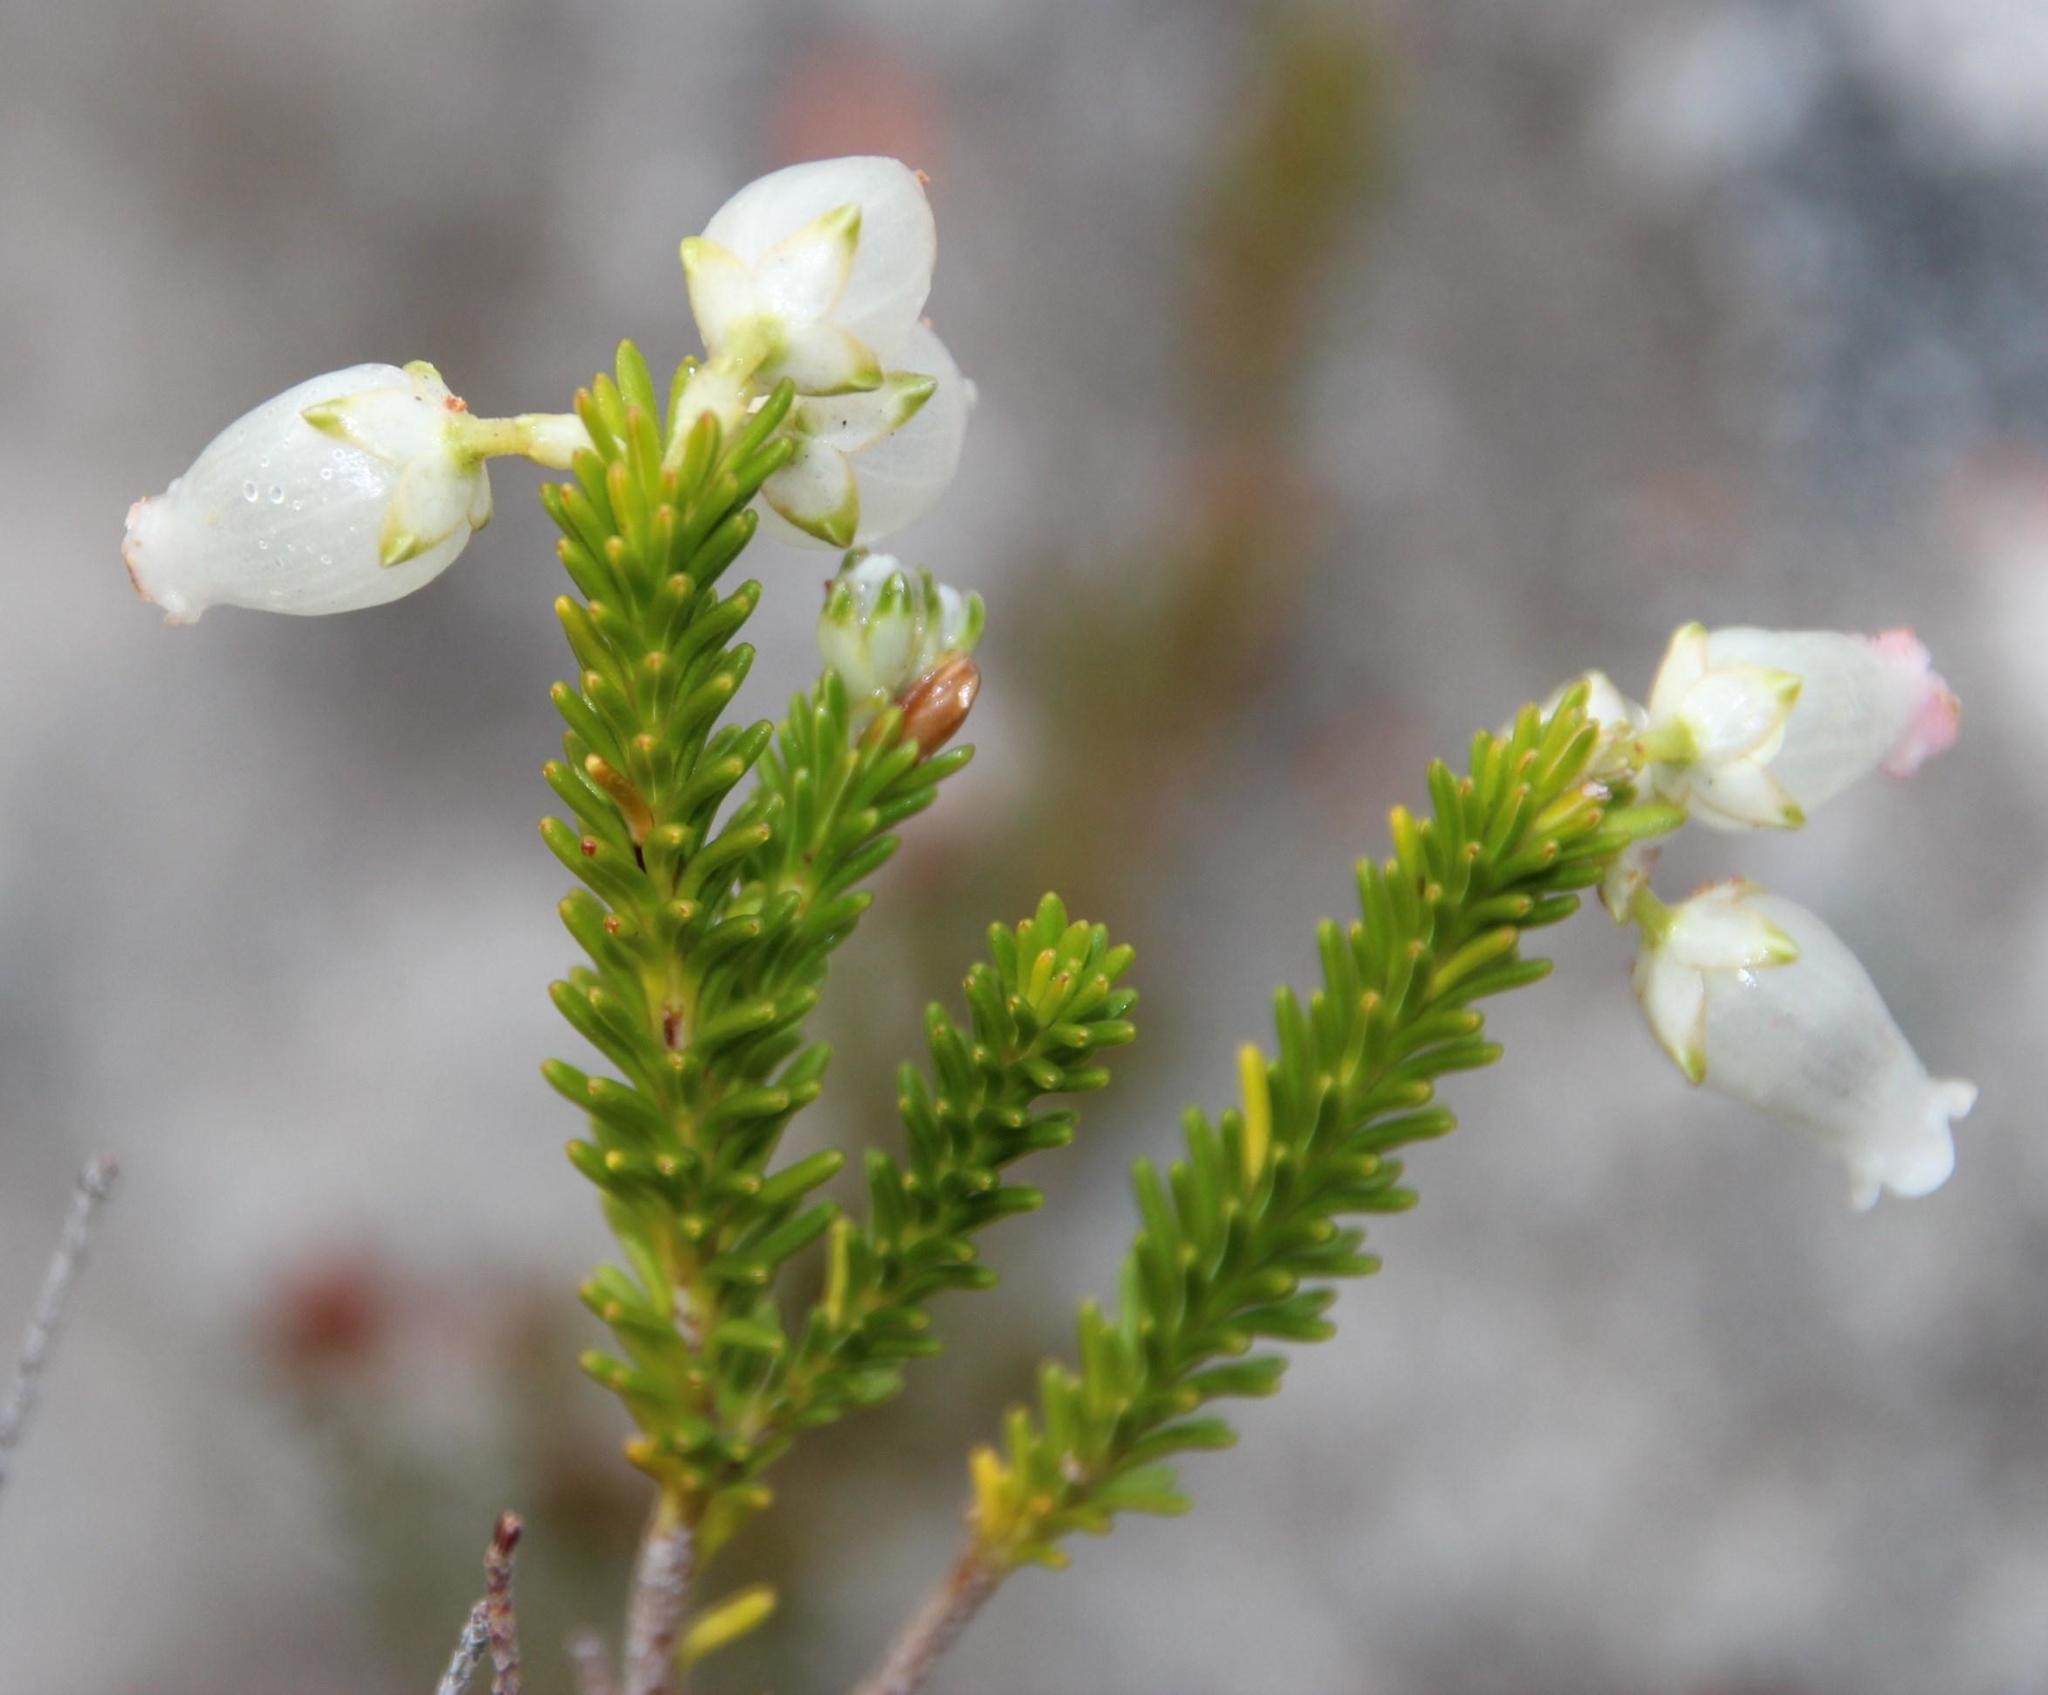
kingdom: Plantae
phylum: Tracheophyta
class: Magnoliopsida
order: Ericales
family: Ericaceae
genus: Erica
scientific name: Erica physodes
